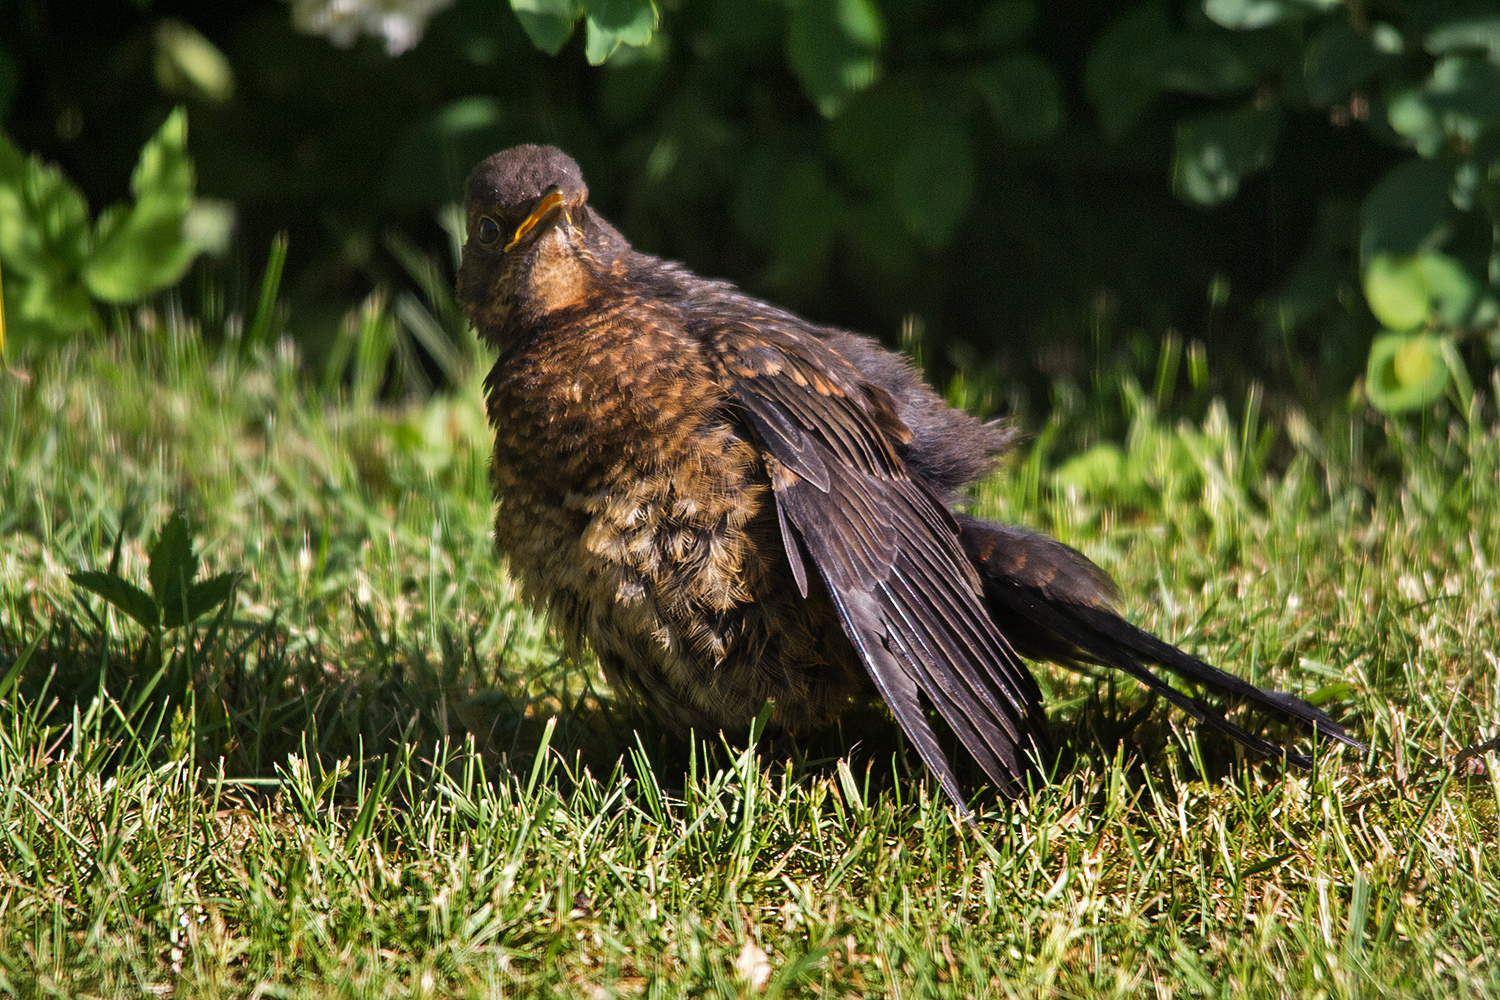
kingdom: Animalia
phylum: Chordata
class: Aves
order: Passeriformes
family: Turdidae
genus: Turdus
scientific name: Turdus merula
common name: Common blackbird
